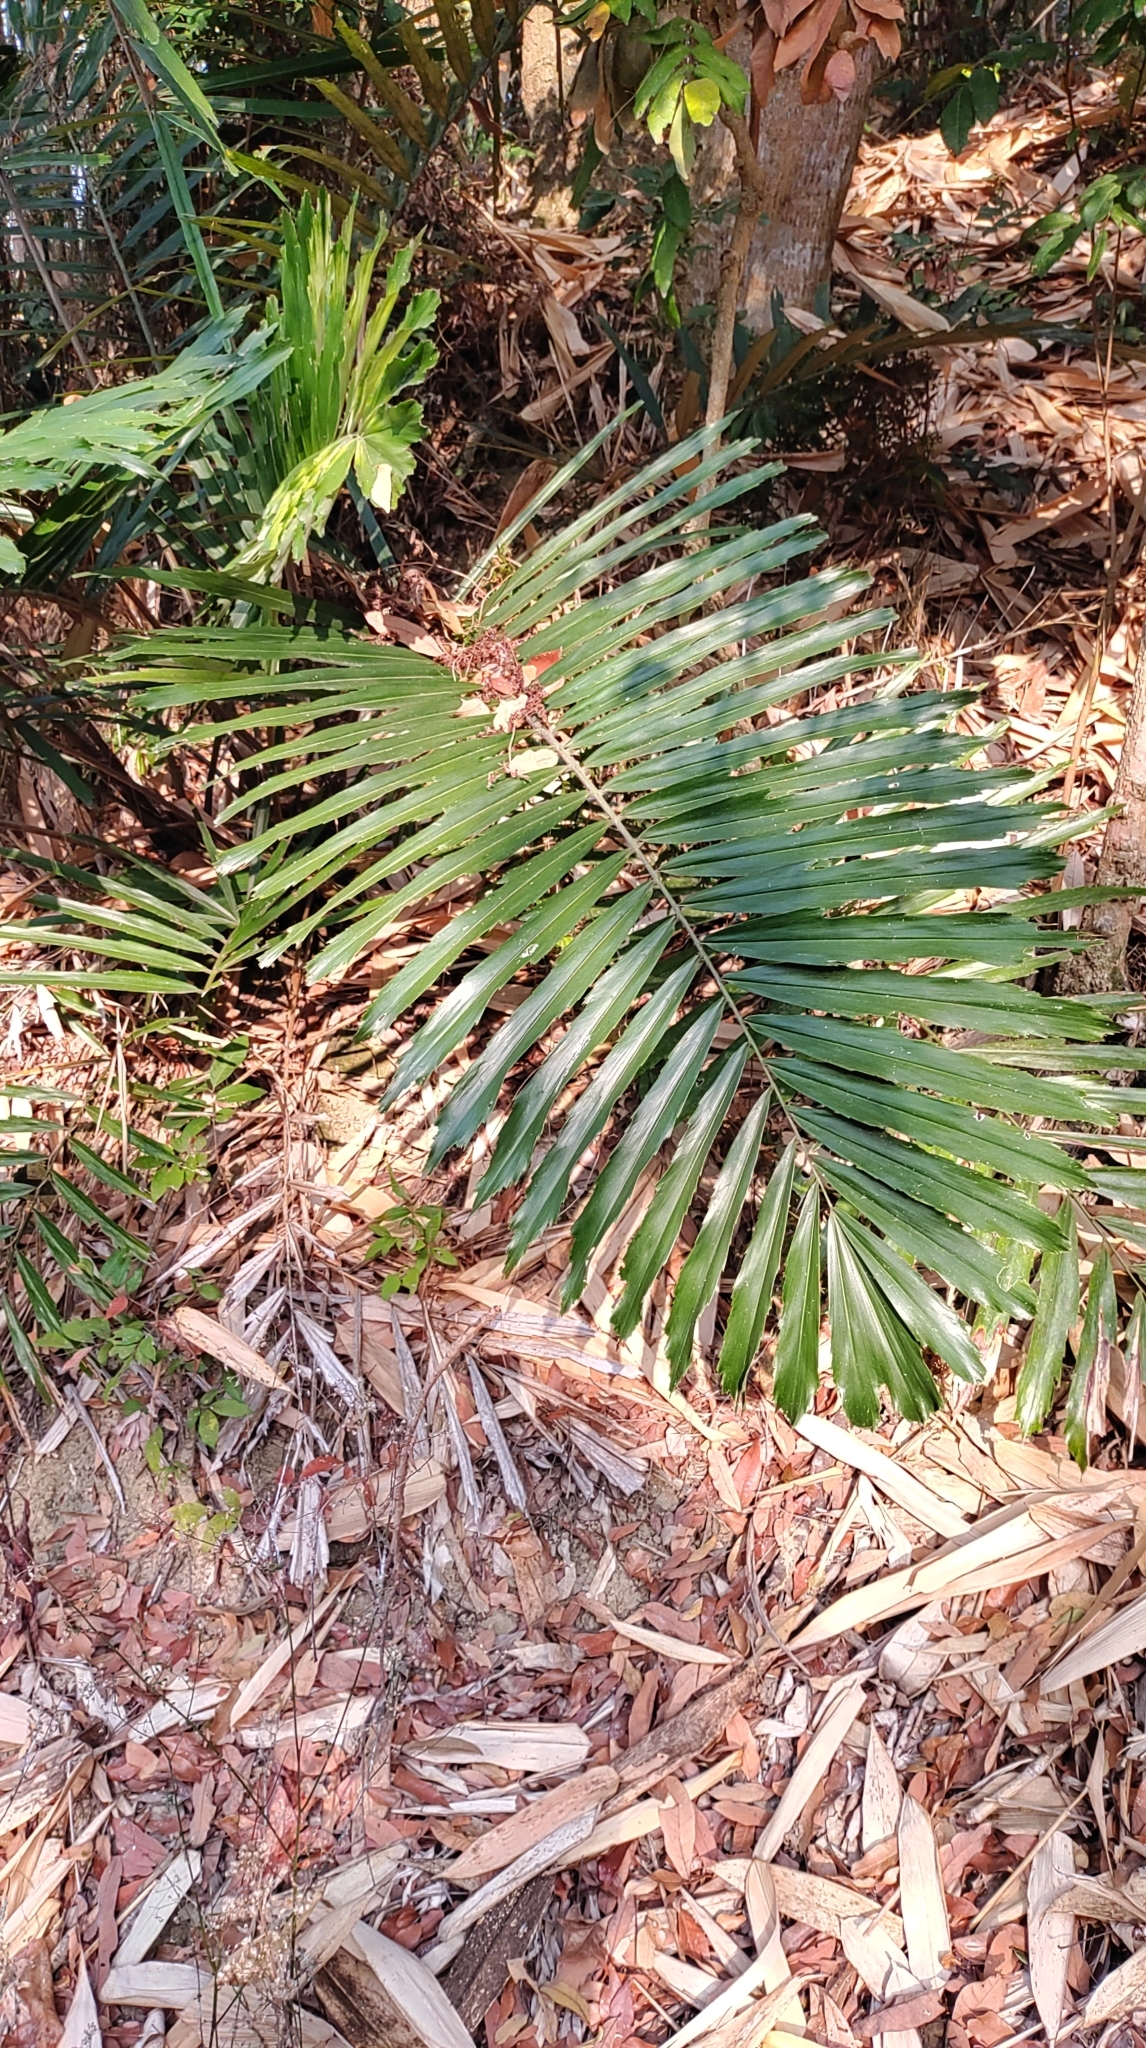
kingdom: Plantae
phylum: Tracheophyta
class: Liliopsida
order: Arecales
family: Arecaceae
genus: Arenga
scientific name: Arenga engleri
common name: Formosan sugar palm
